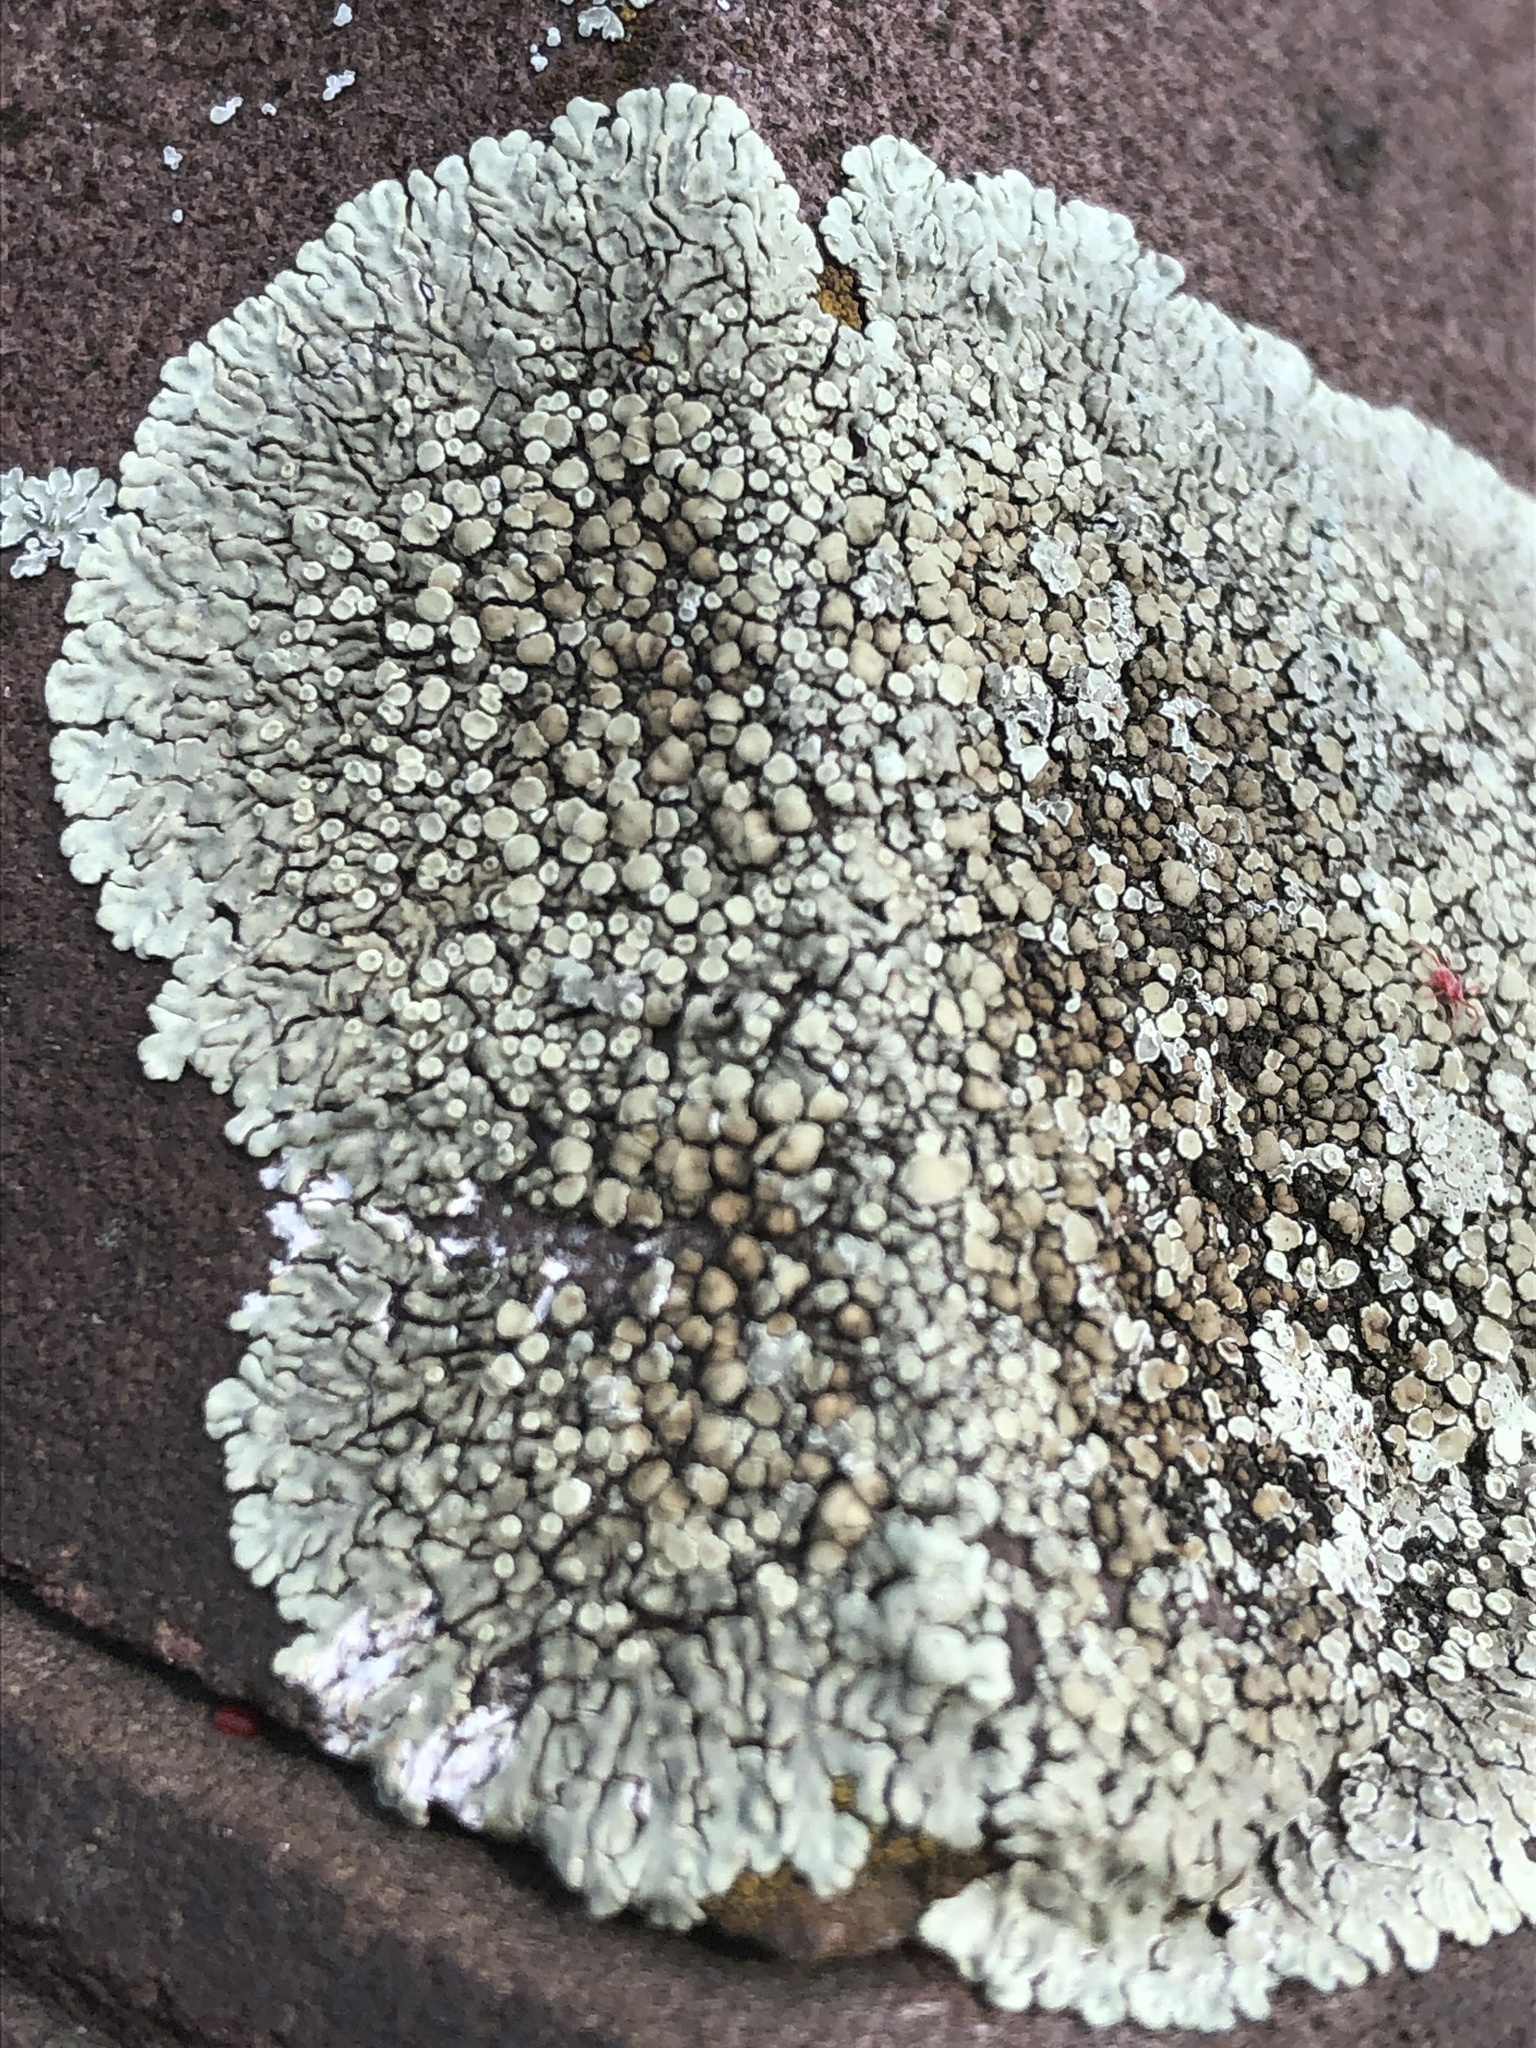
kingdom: Fungi
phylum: Ascomycota
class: Lecanoromycetes
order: Lecanorales
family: Lecanoraceae
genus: Protoparmeliopsis
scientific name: Protoparmeliopsis muralis
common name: Stonewall rim lichen
